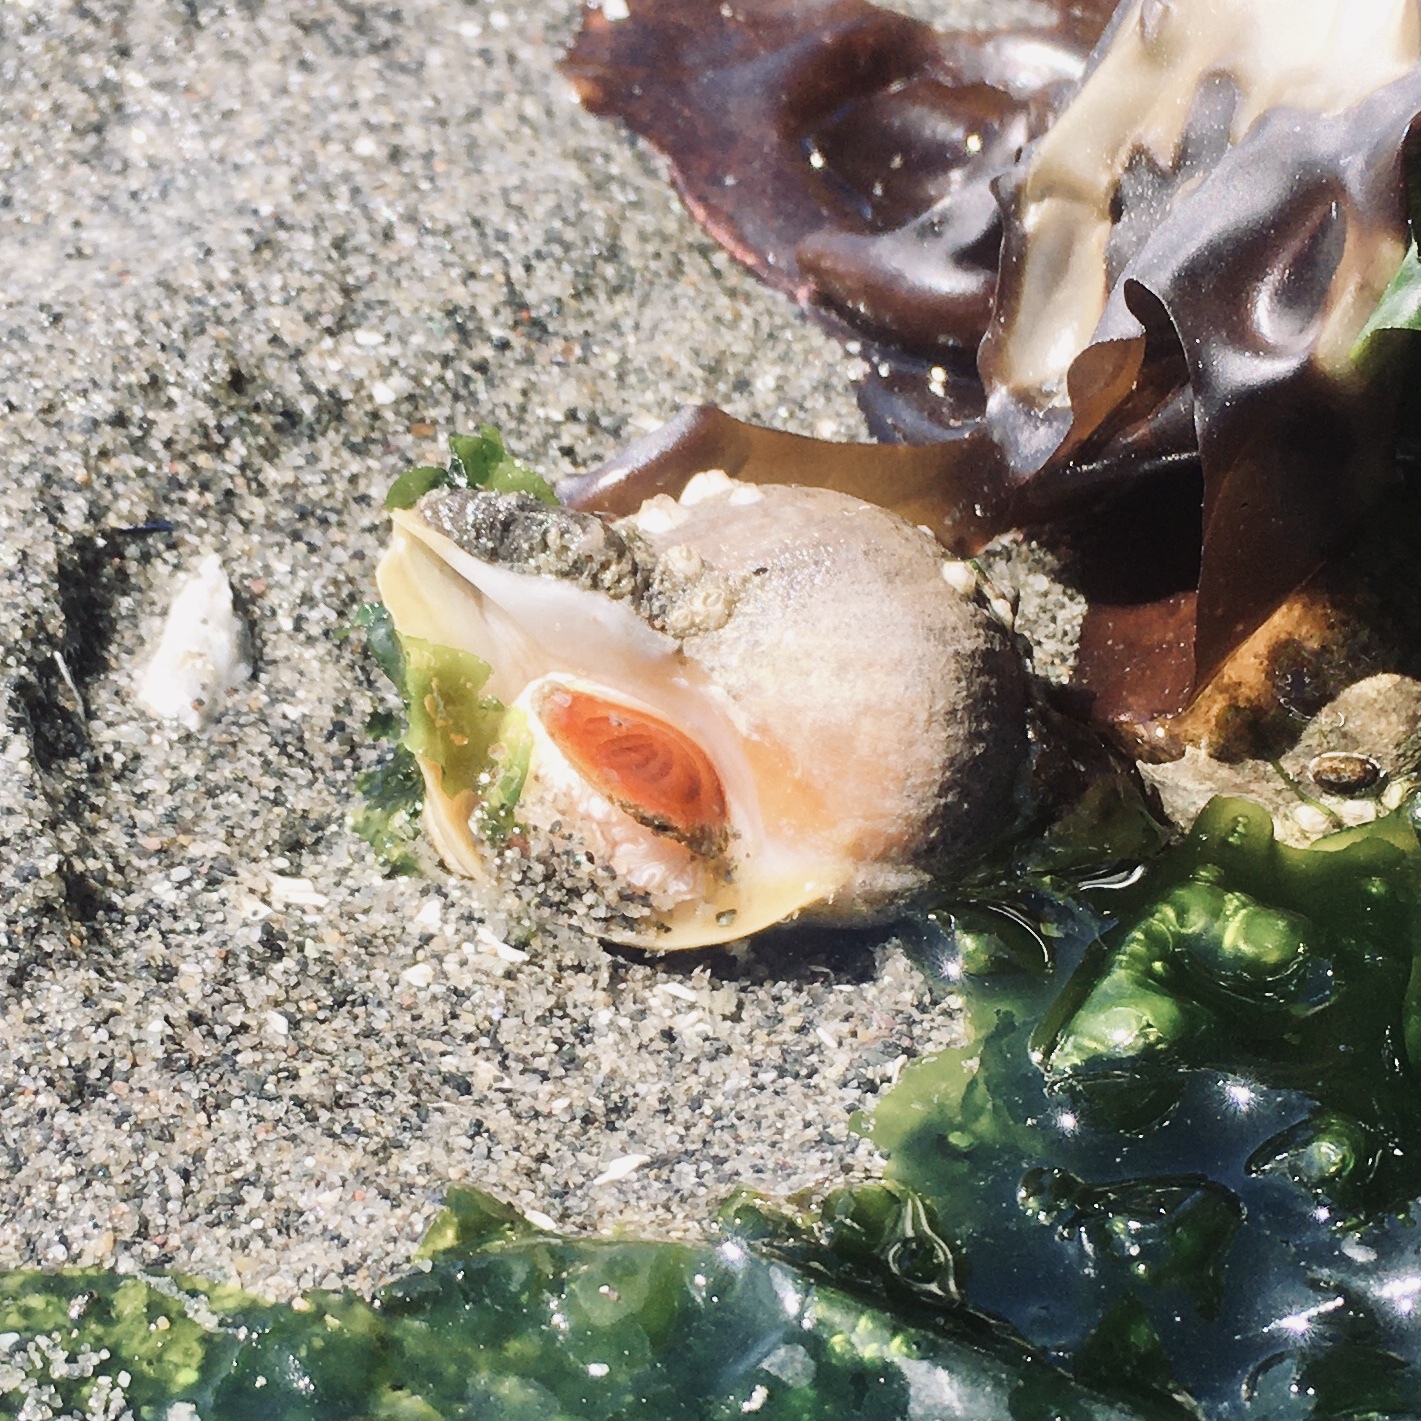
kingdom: Animalia
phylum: Mollusca
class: Gastropoda
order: Neogastropoda
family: Muricidae
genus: Nucella
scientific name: Nucella lamellosa
